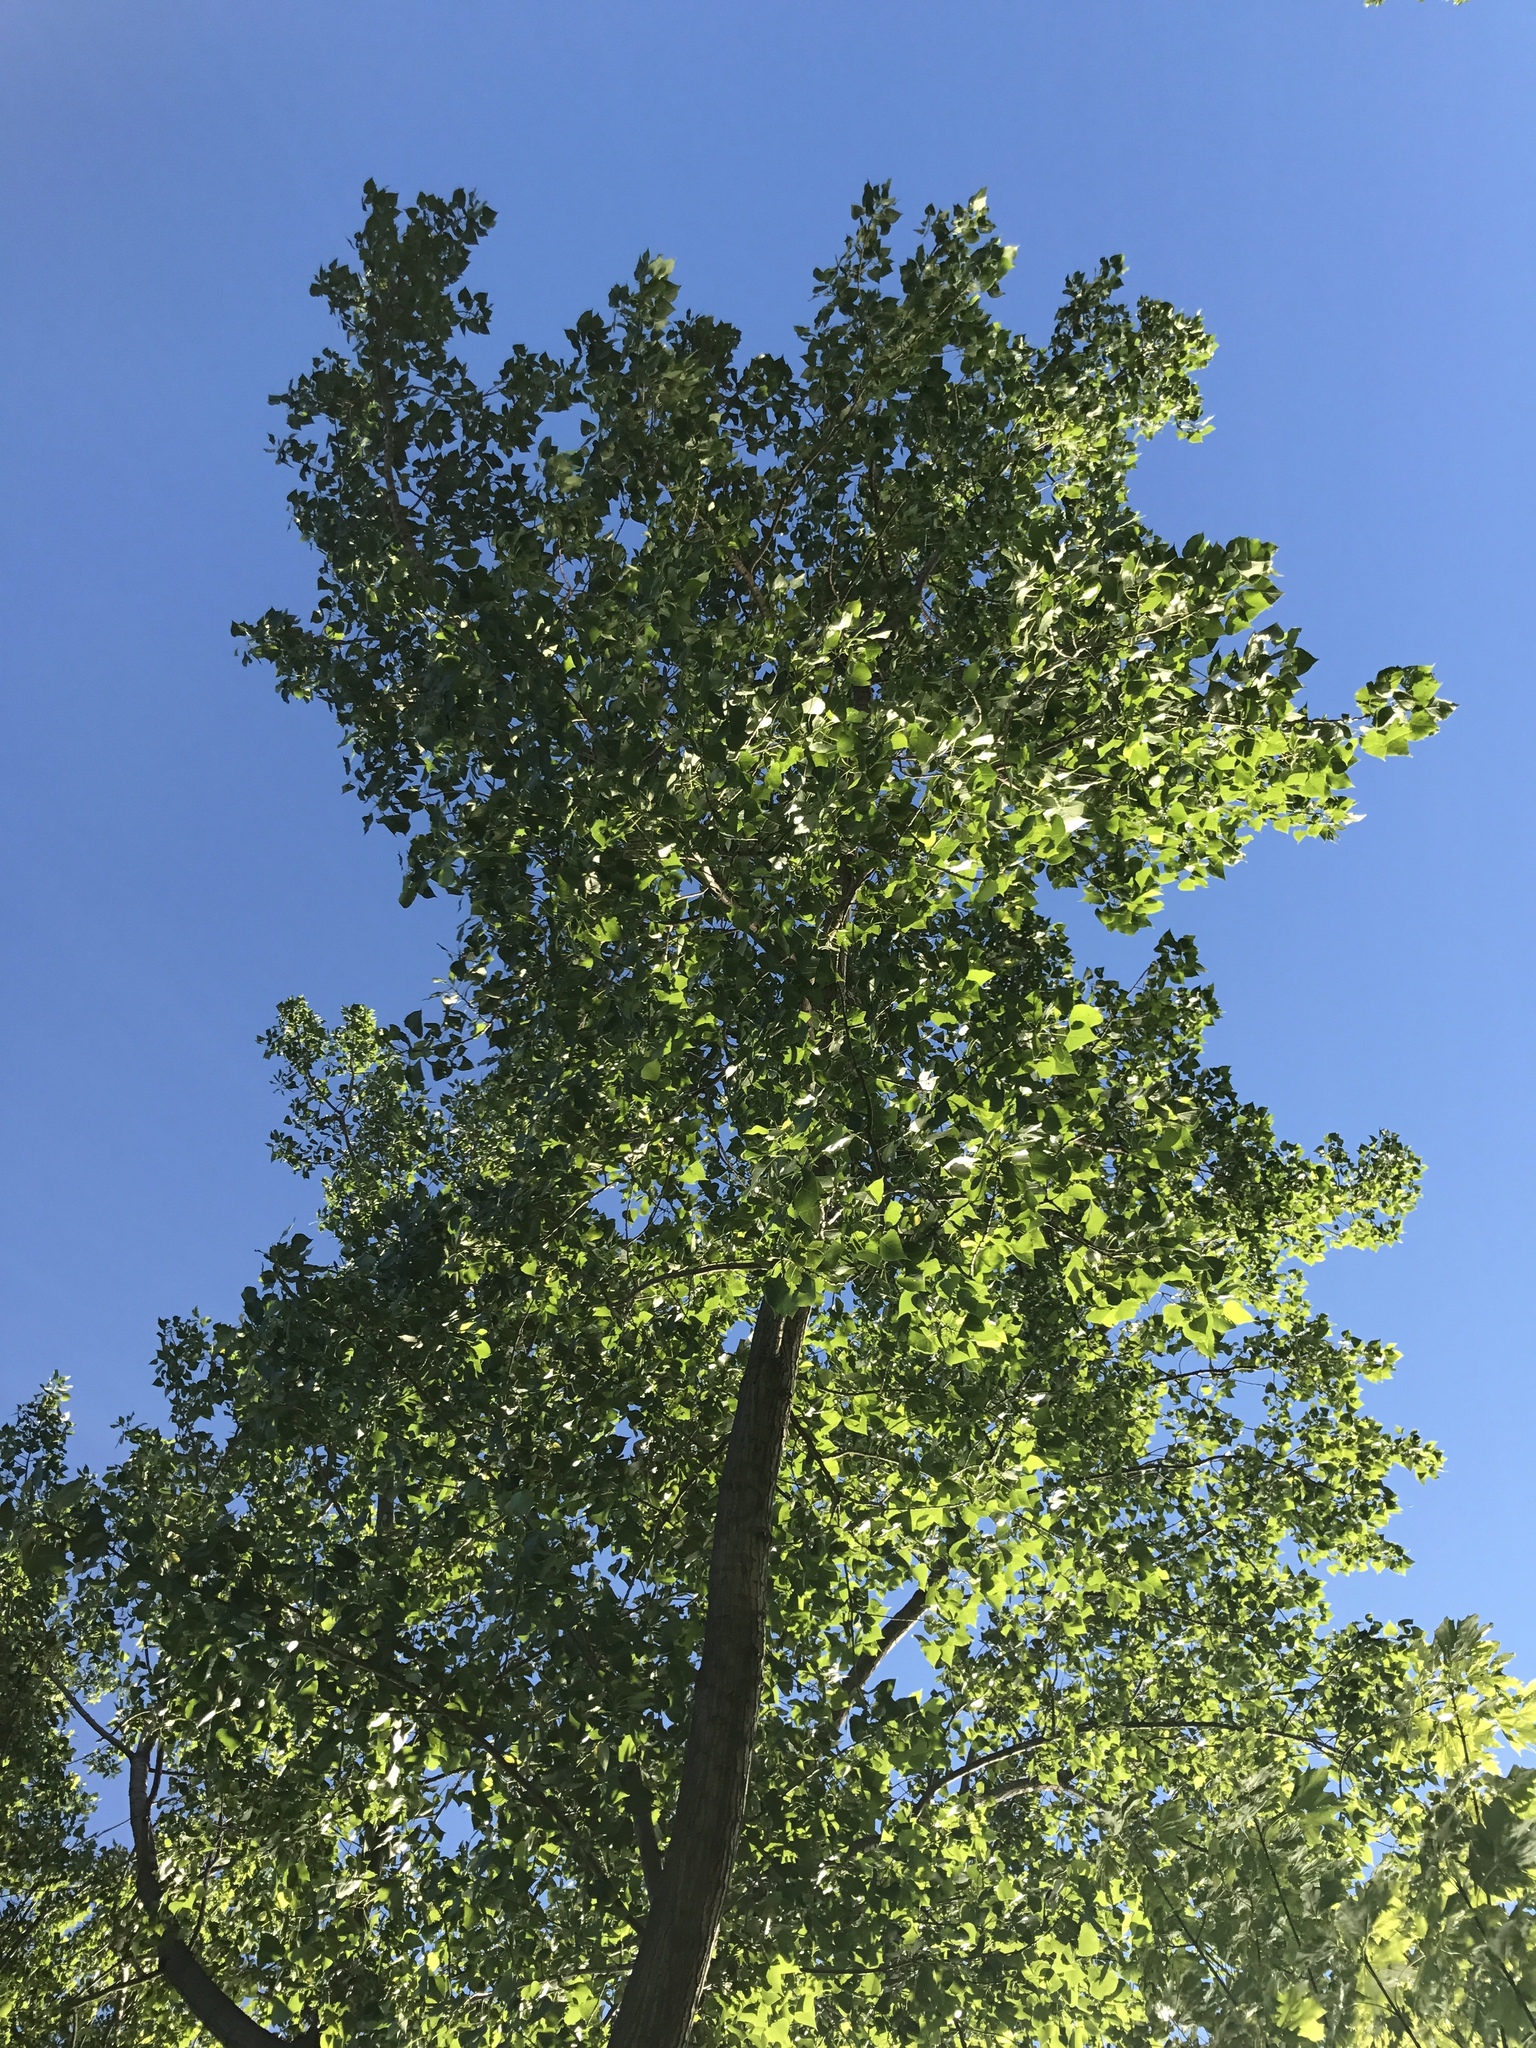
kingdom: Plantae
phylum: Tracheophyta
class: Magnoliopsida
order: Malpighiales
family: Salicaceae
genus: Populus
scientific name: Populus deltoides
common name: Eastern cottonwood
